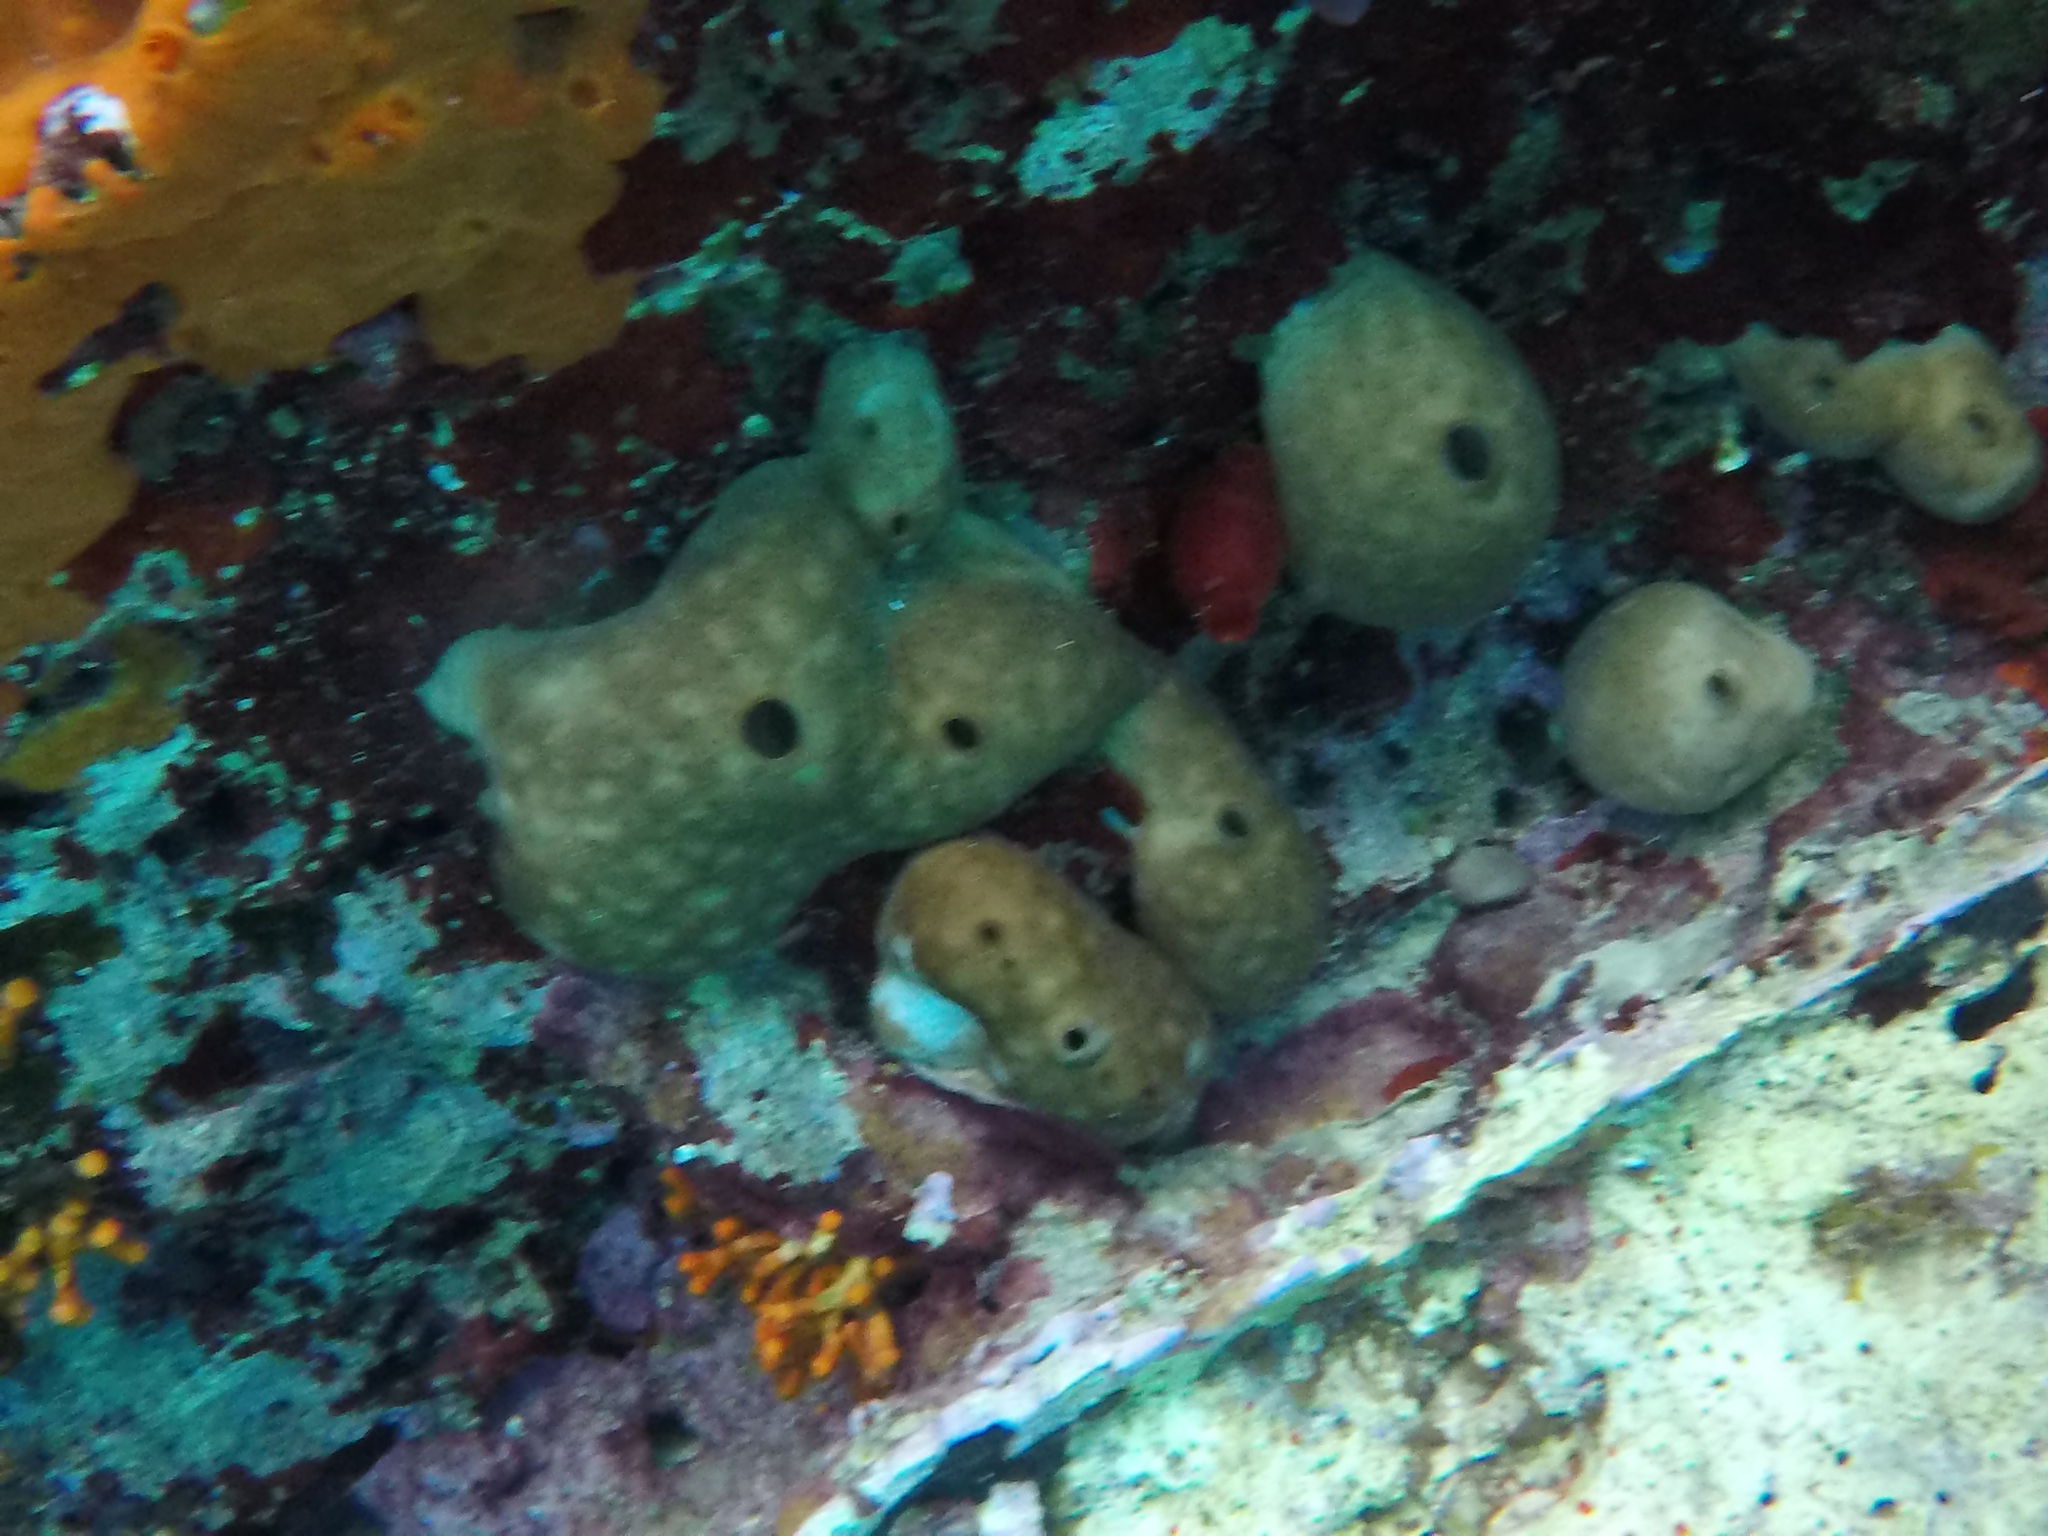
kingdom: Animalia
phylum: Porifera
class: Demospongiae
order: Chondrosiida
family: Chondrosiidae
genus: Chondrosia
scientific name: Chondrosia reniformis
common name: Chicken liver sponge
